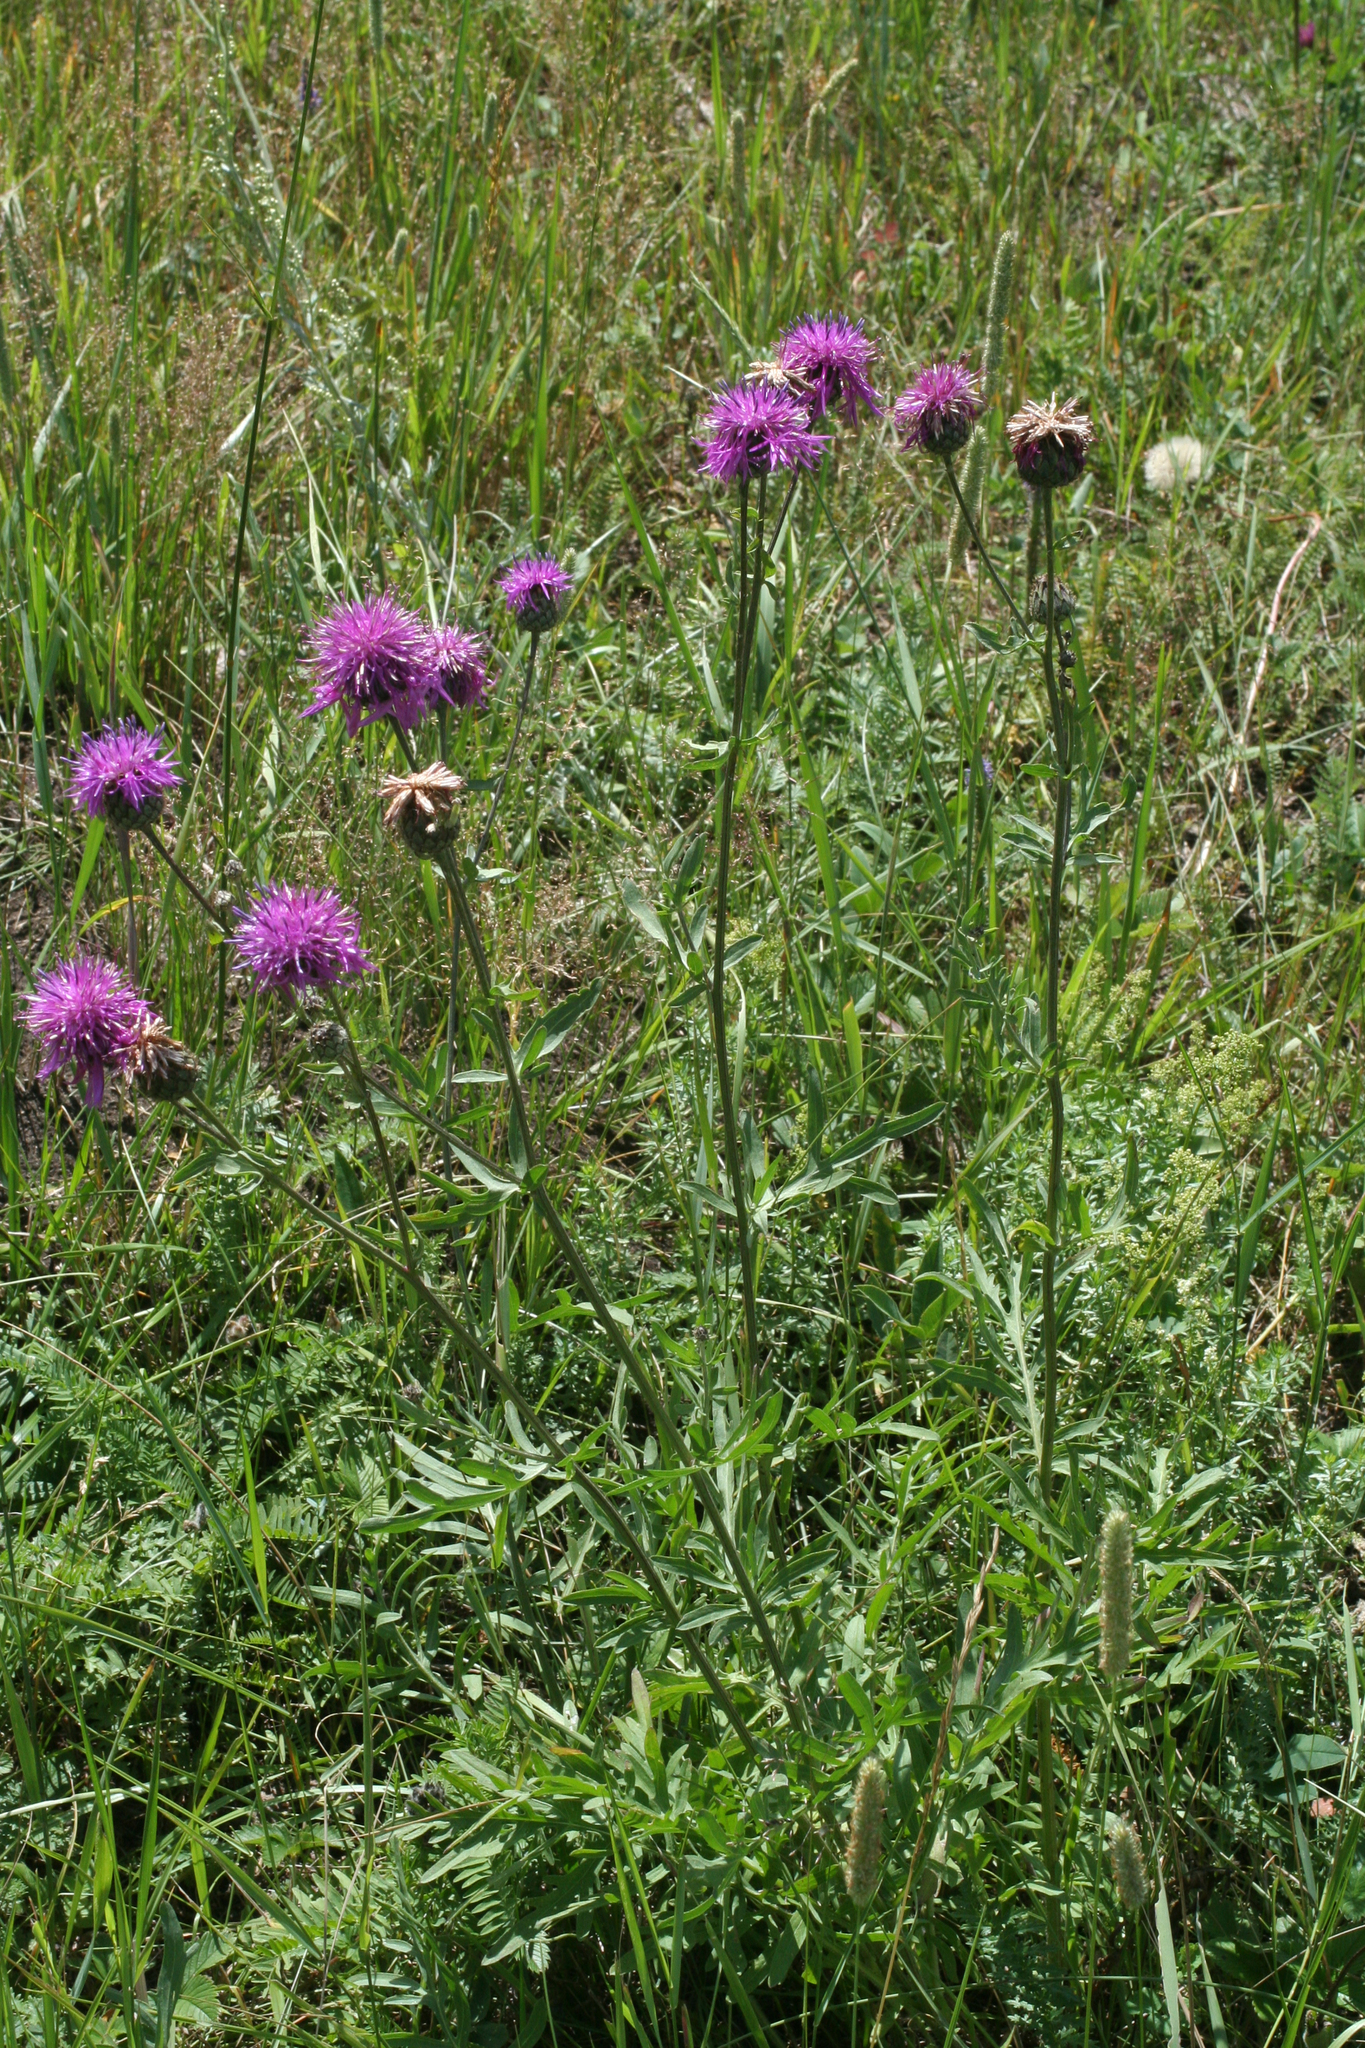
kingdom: Plantae
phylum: Tracheophyta
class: Magnoliopsida
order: Asterales
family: Asteraceae
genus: Centaurea
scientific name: Centaurea scabiosa
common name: Greater knapweed
